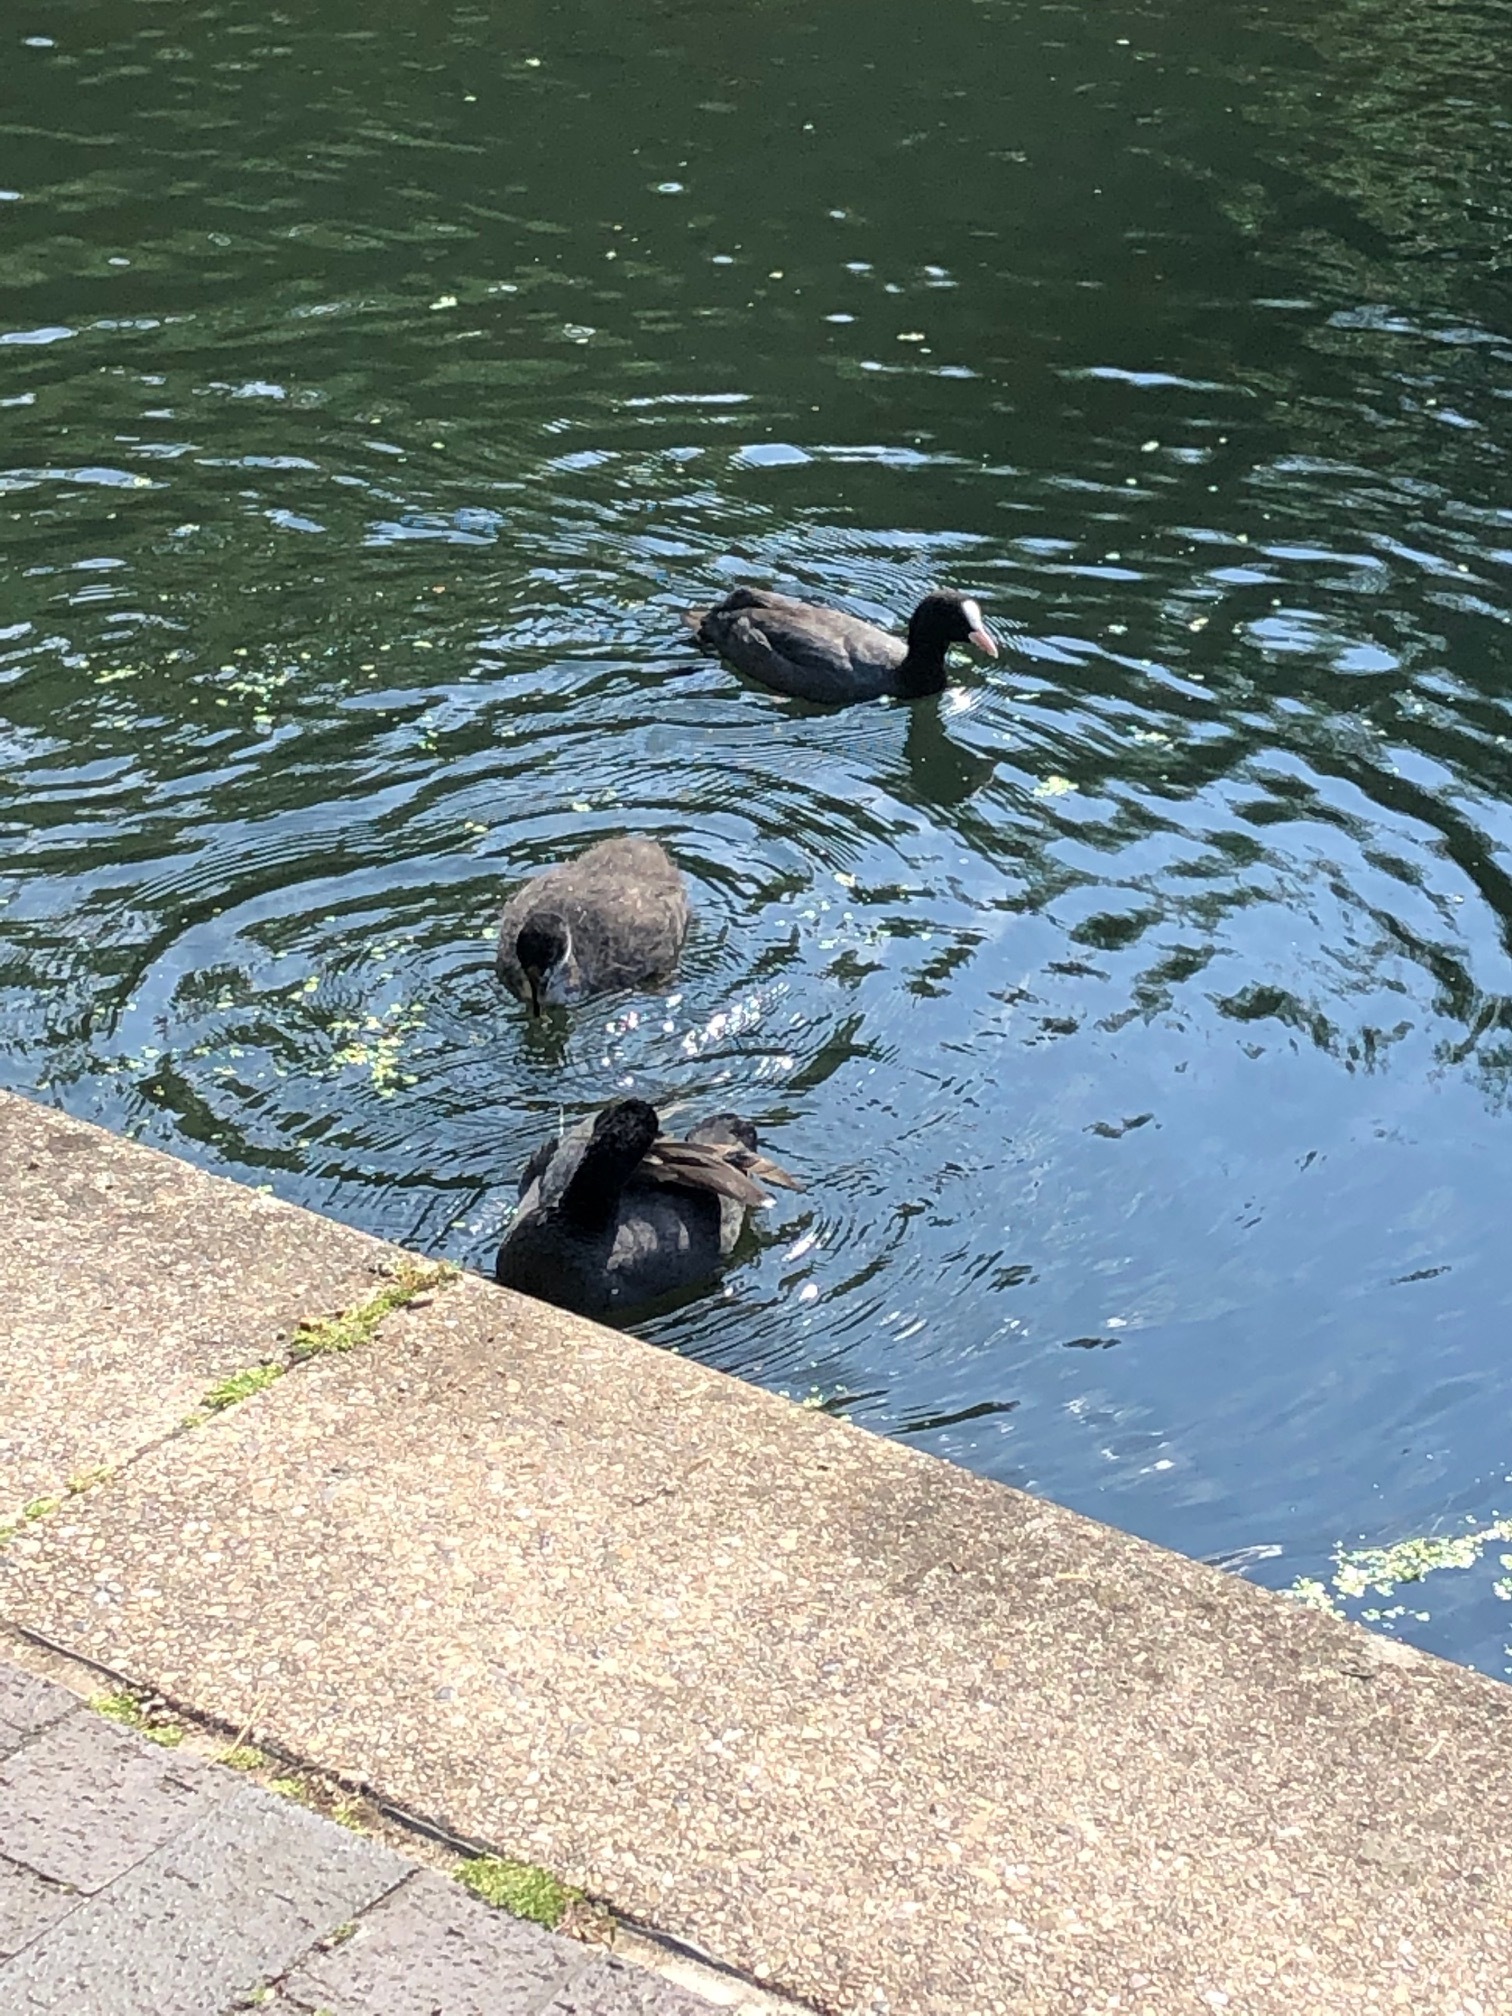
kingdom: Animalia
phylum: Chordata
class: Aves
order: Gruiformes
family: Rallidae
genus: Fulica
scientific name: Fulica atra
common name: Eurasian coot
